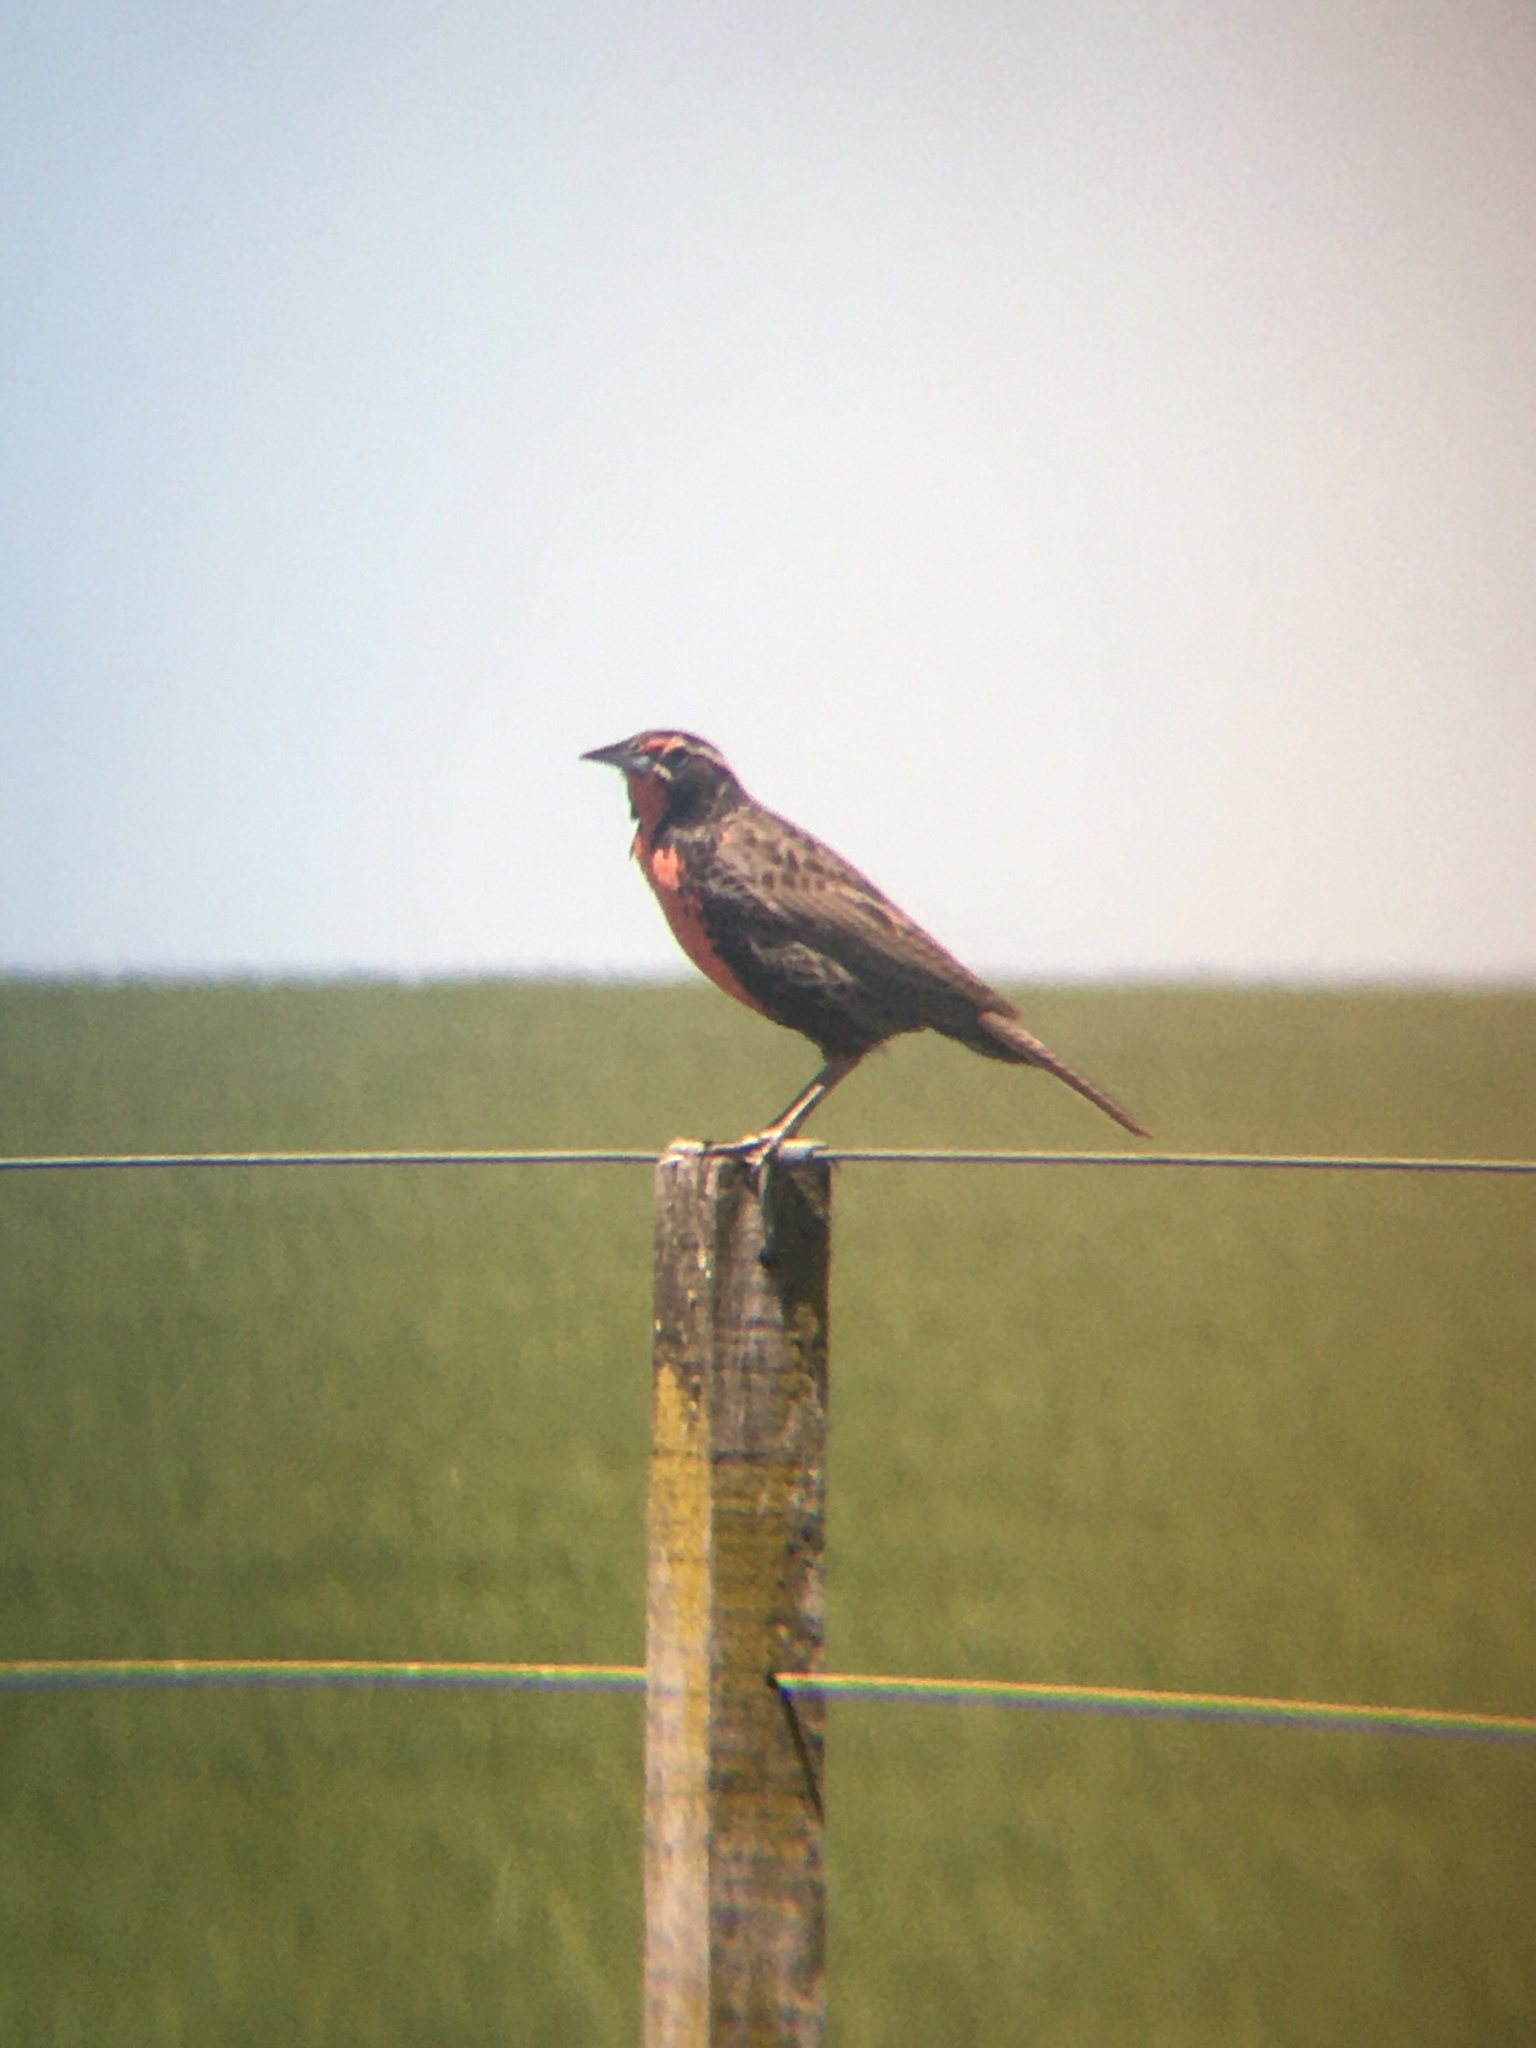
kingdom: Animalia
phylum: Chordata
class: Aves
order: Passeriformes
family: Icteridae
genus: Sturnella
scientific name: Sturnella loyca
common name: Long-tailed meadowlark
